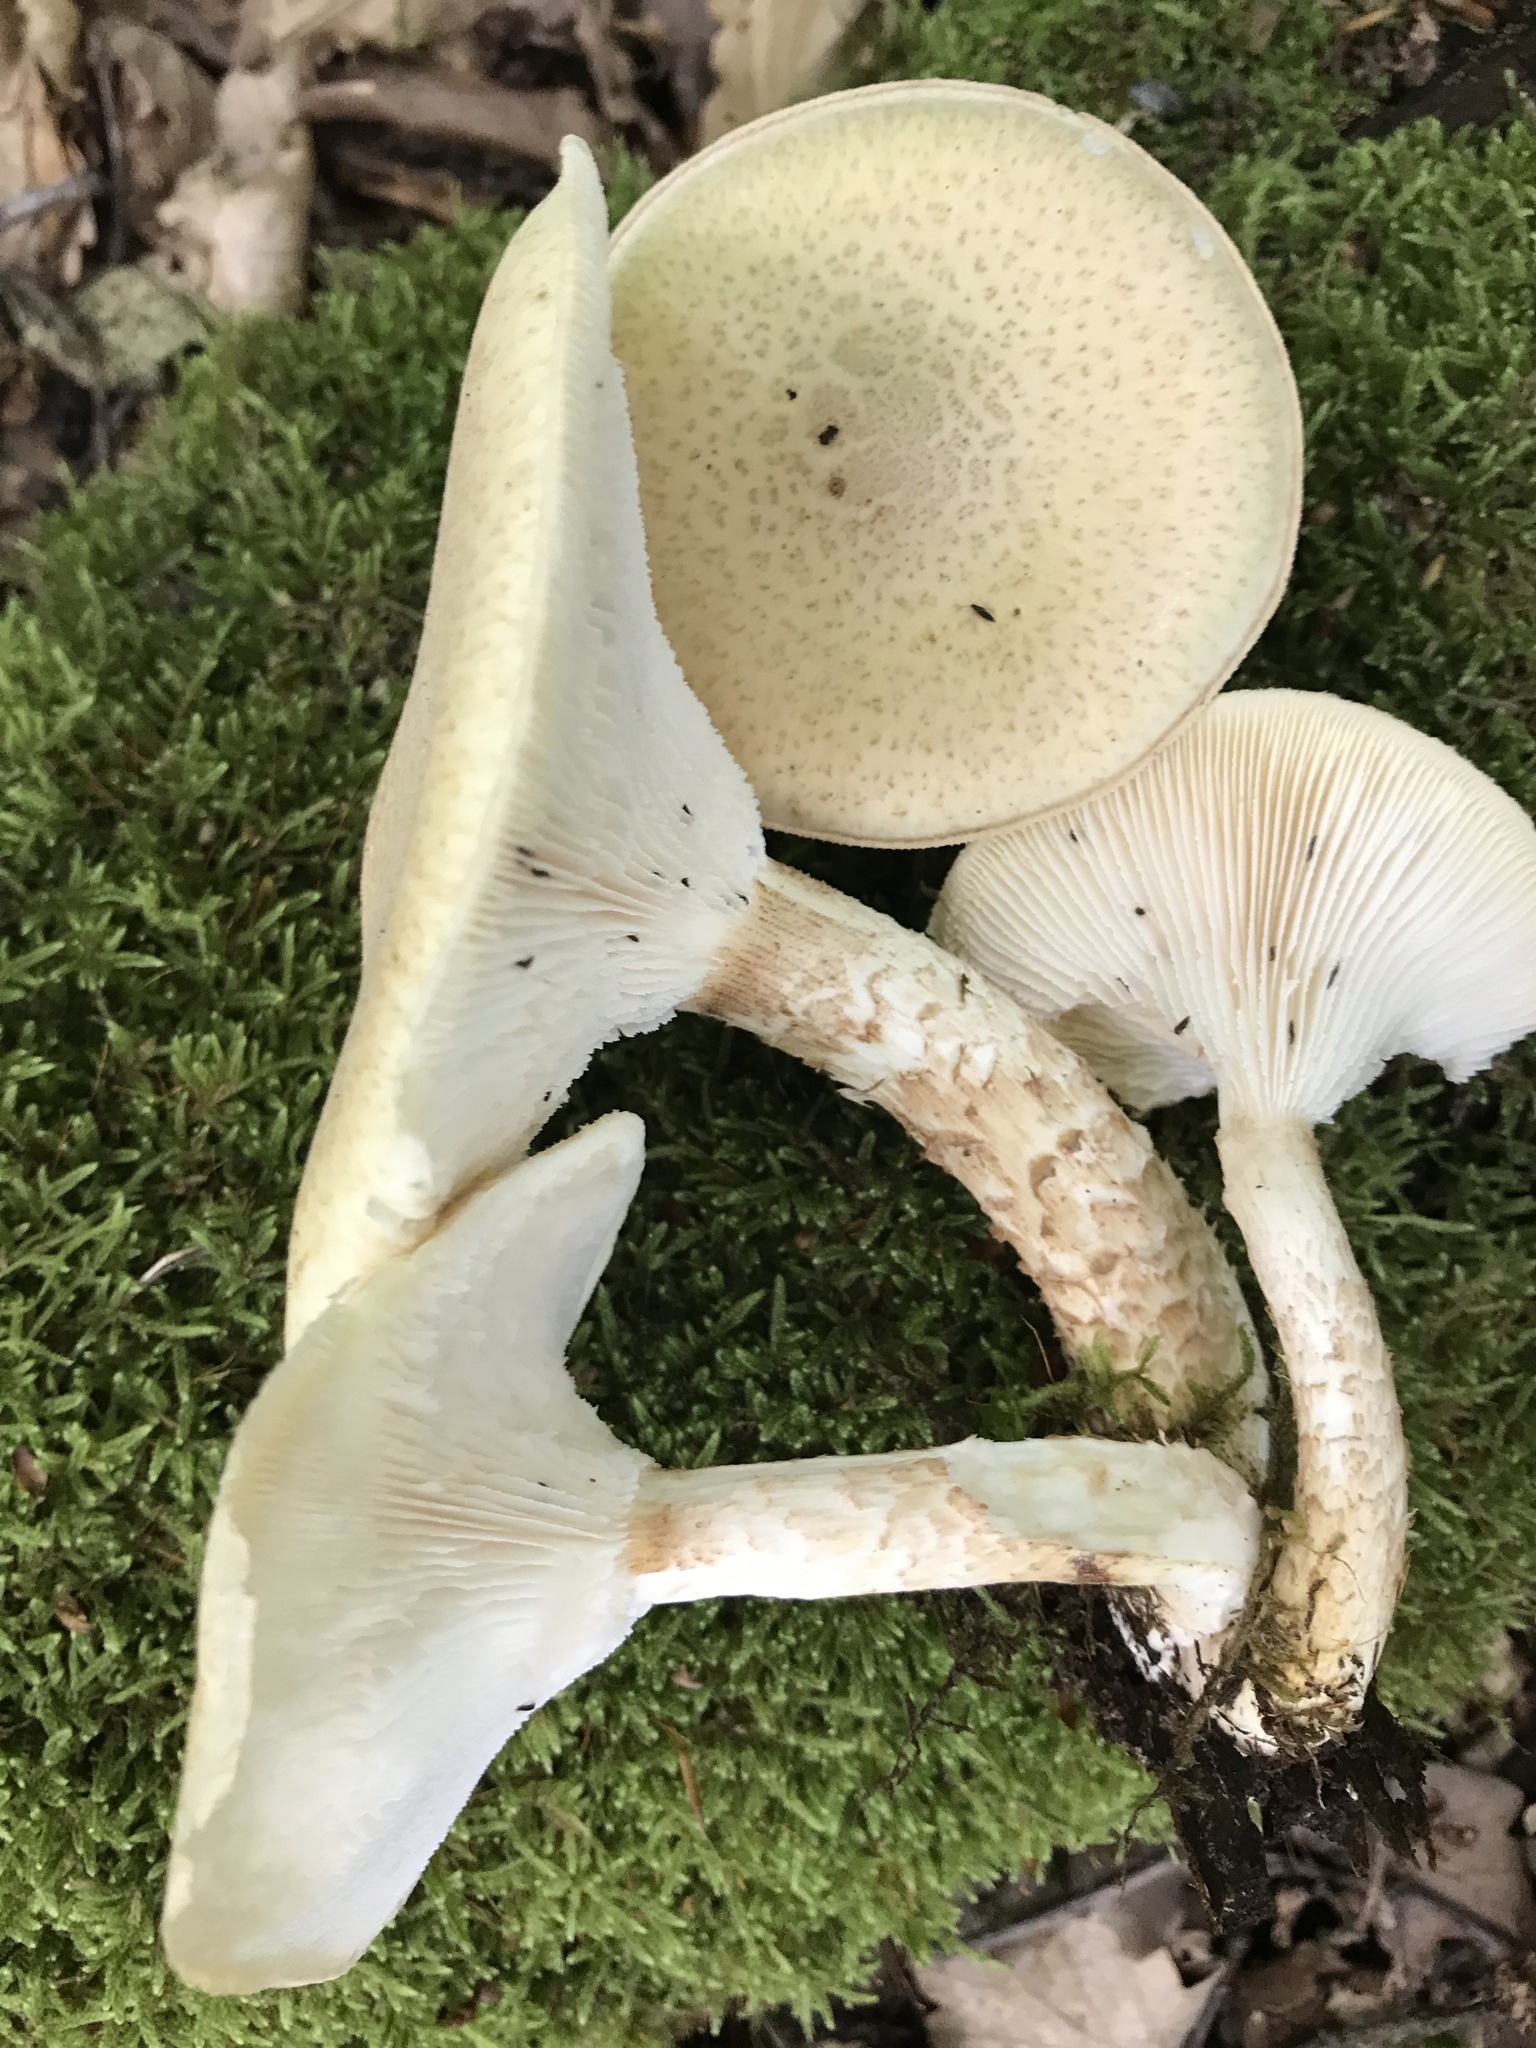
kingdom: Fungi
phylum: Basidiomycota
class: Agaricomycetes
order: Gloeophyllales
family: Gloeophyllaceae
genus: Neolentinus
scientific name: Neolentinus lepideus
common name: Scaly sawgill
